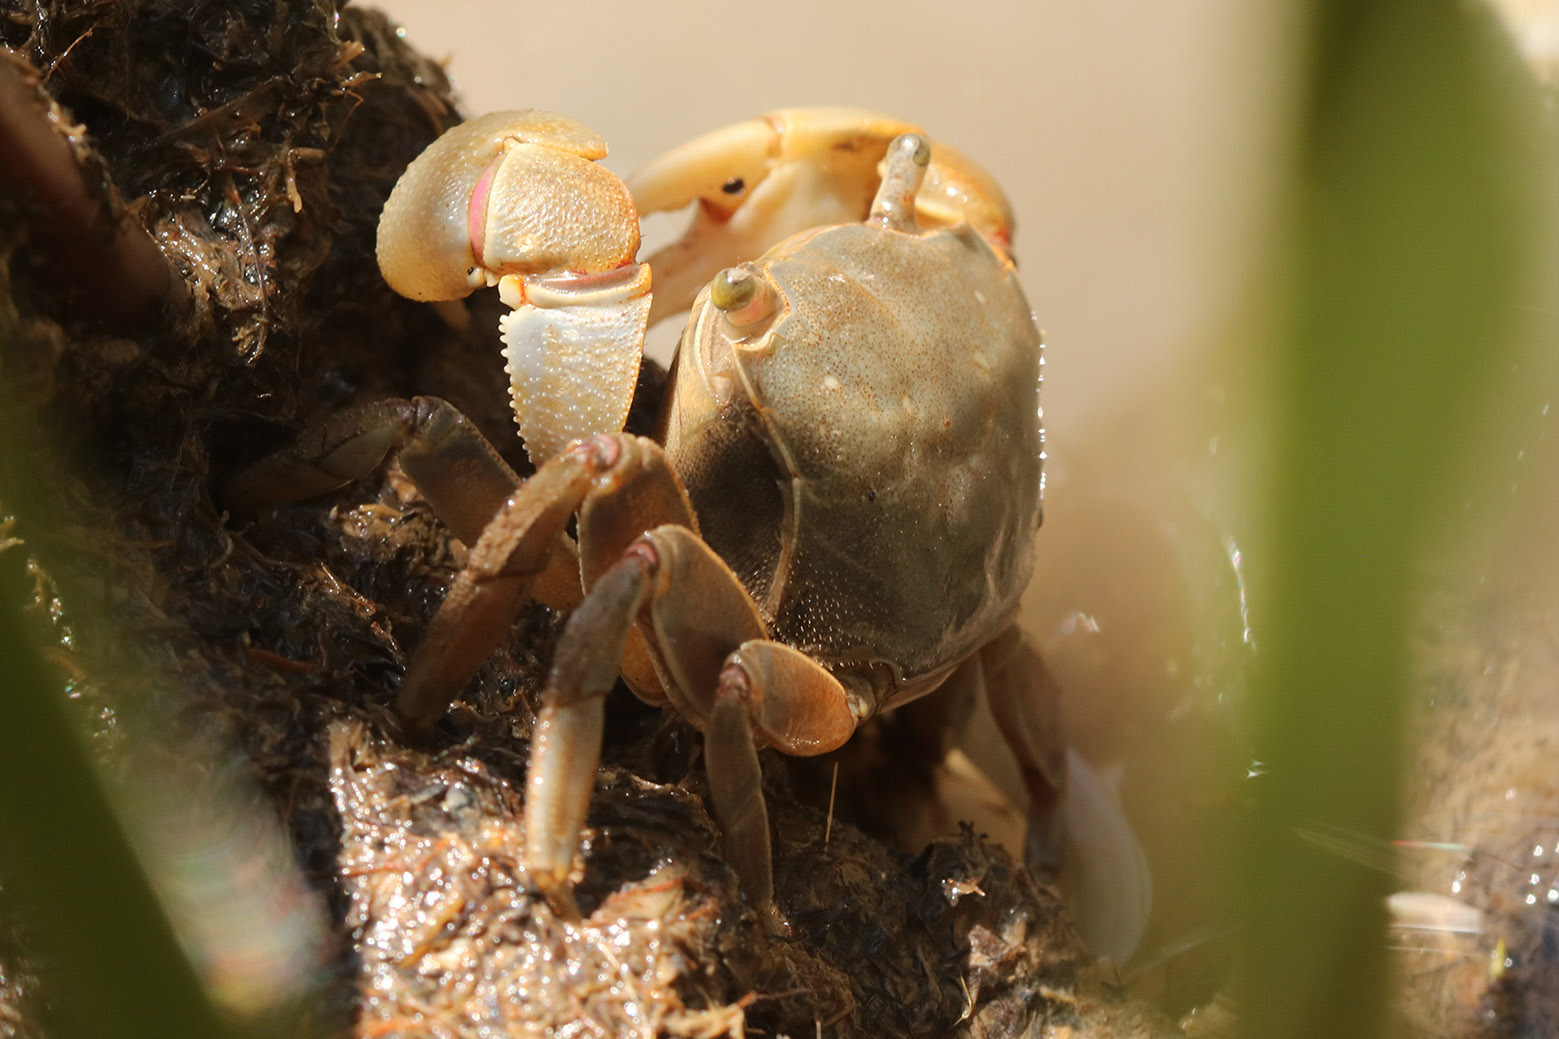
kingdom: Animalia
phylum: Arthropoda
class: Malacostraca
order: Decapoda
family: Varunidae
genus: Neohelice
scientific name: Neohelice granulata
